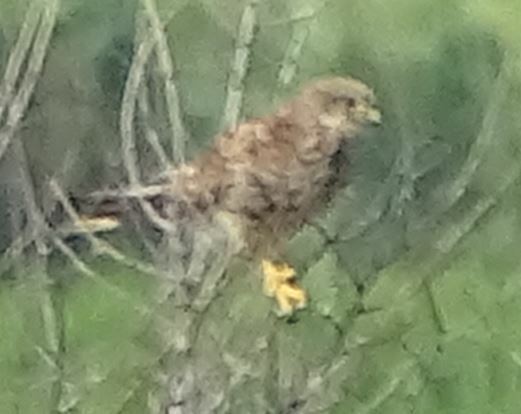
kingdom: Animalia
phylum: Chordata
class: Aves
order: Falconiformes
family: Falconidae
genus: Falco
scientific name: Falco tinnunculus
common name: Common kestrel
